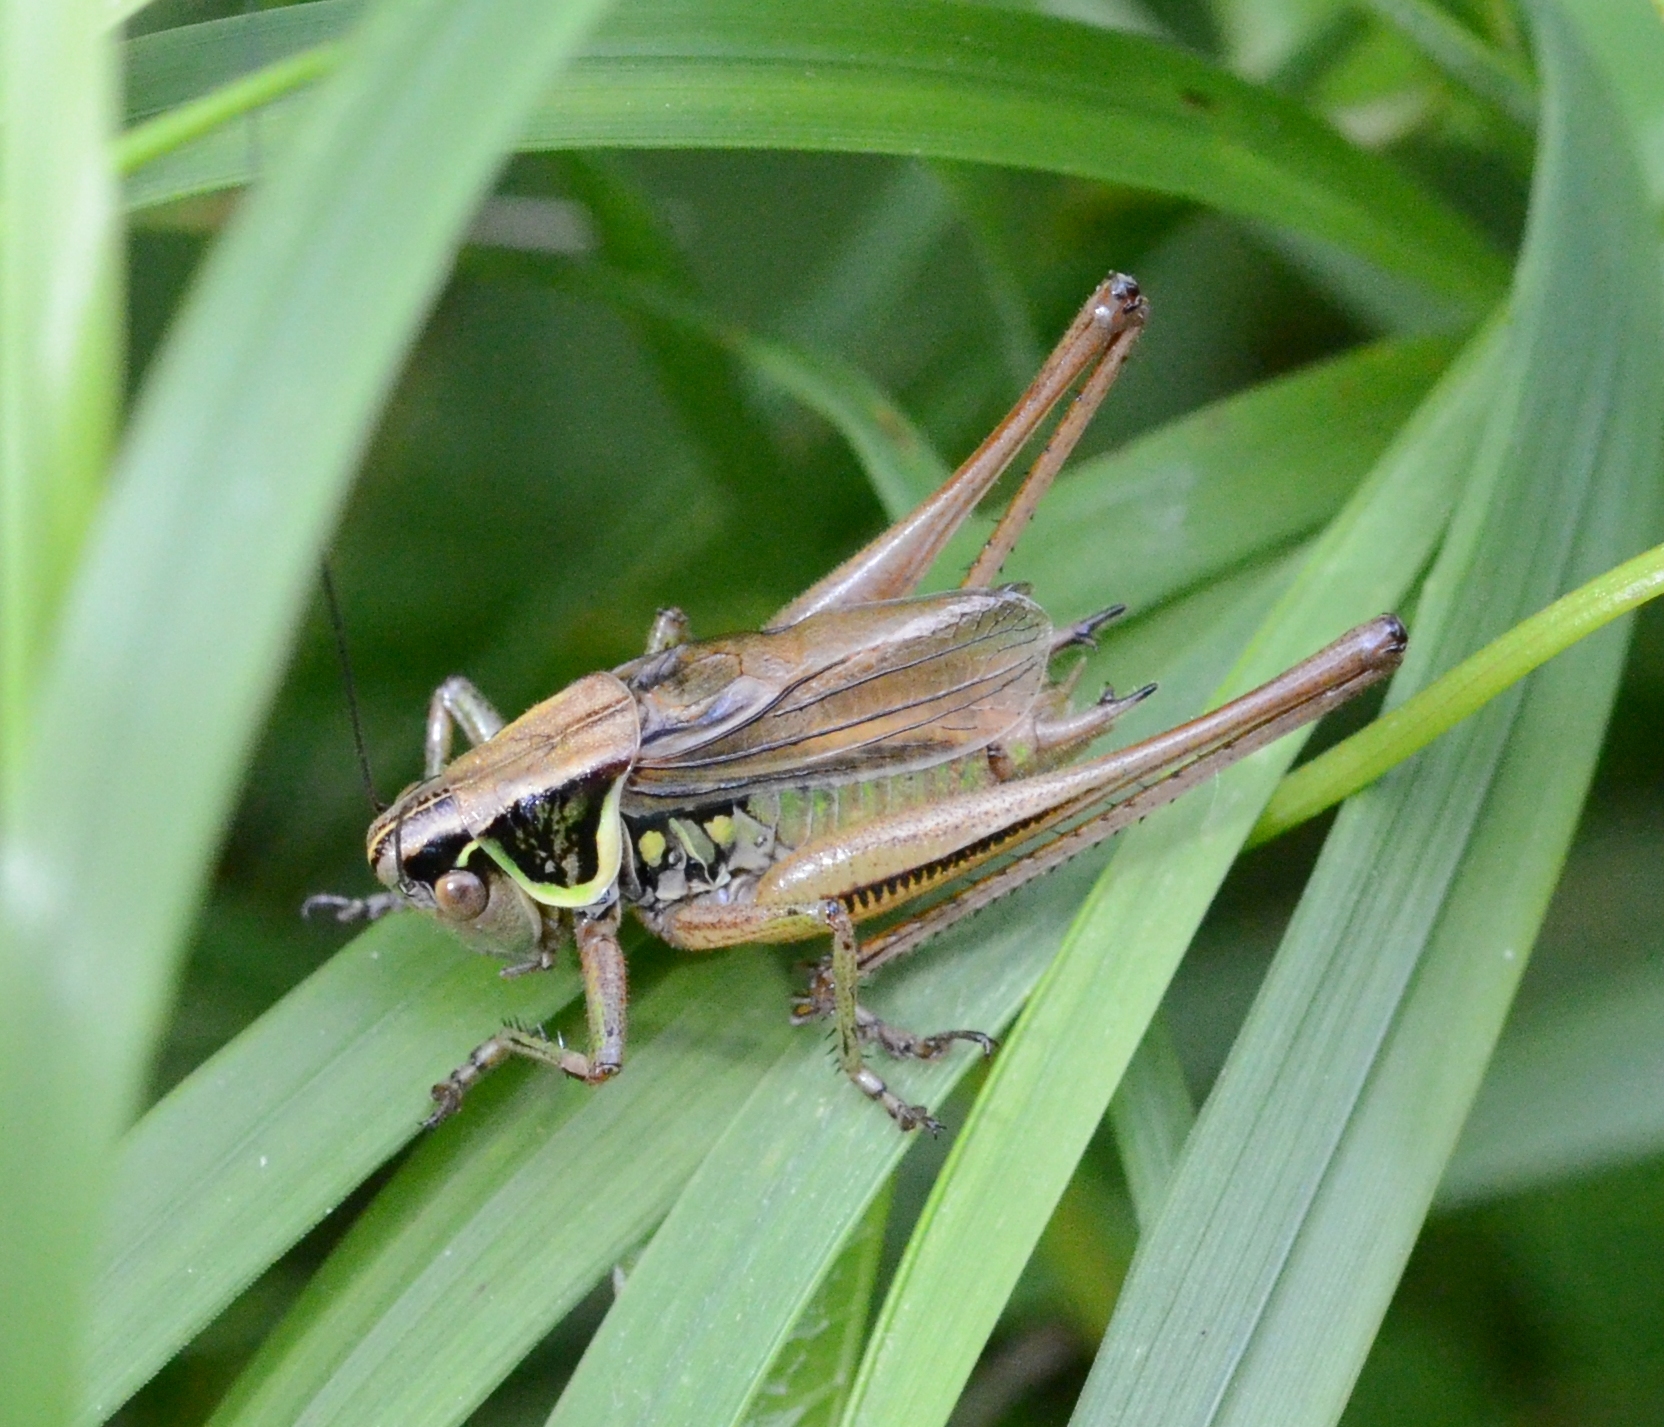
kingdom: Animalia
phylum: Arthropoda
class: Insecta
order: Orthoptera
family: Tettigoniidae
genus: Roeseliana
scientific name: Roeseliana roeselii
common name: Roesel's bush cricket
